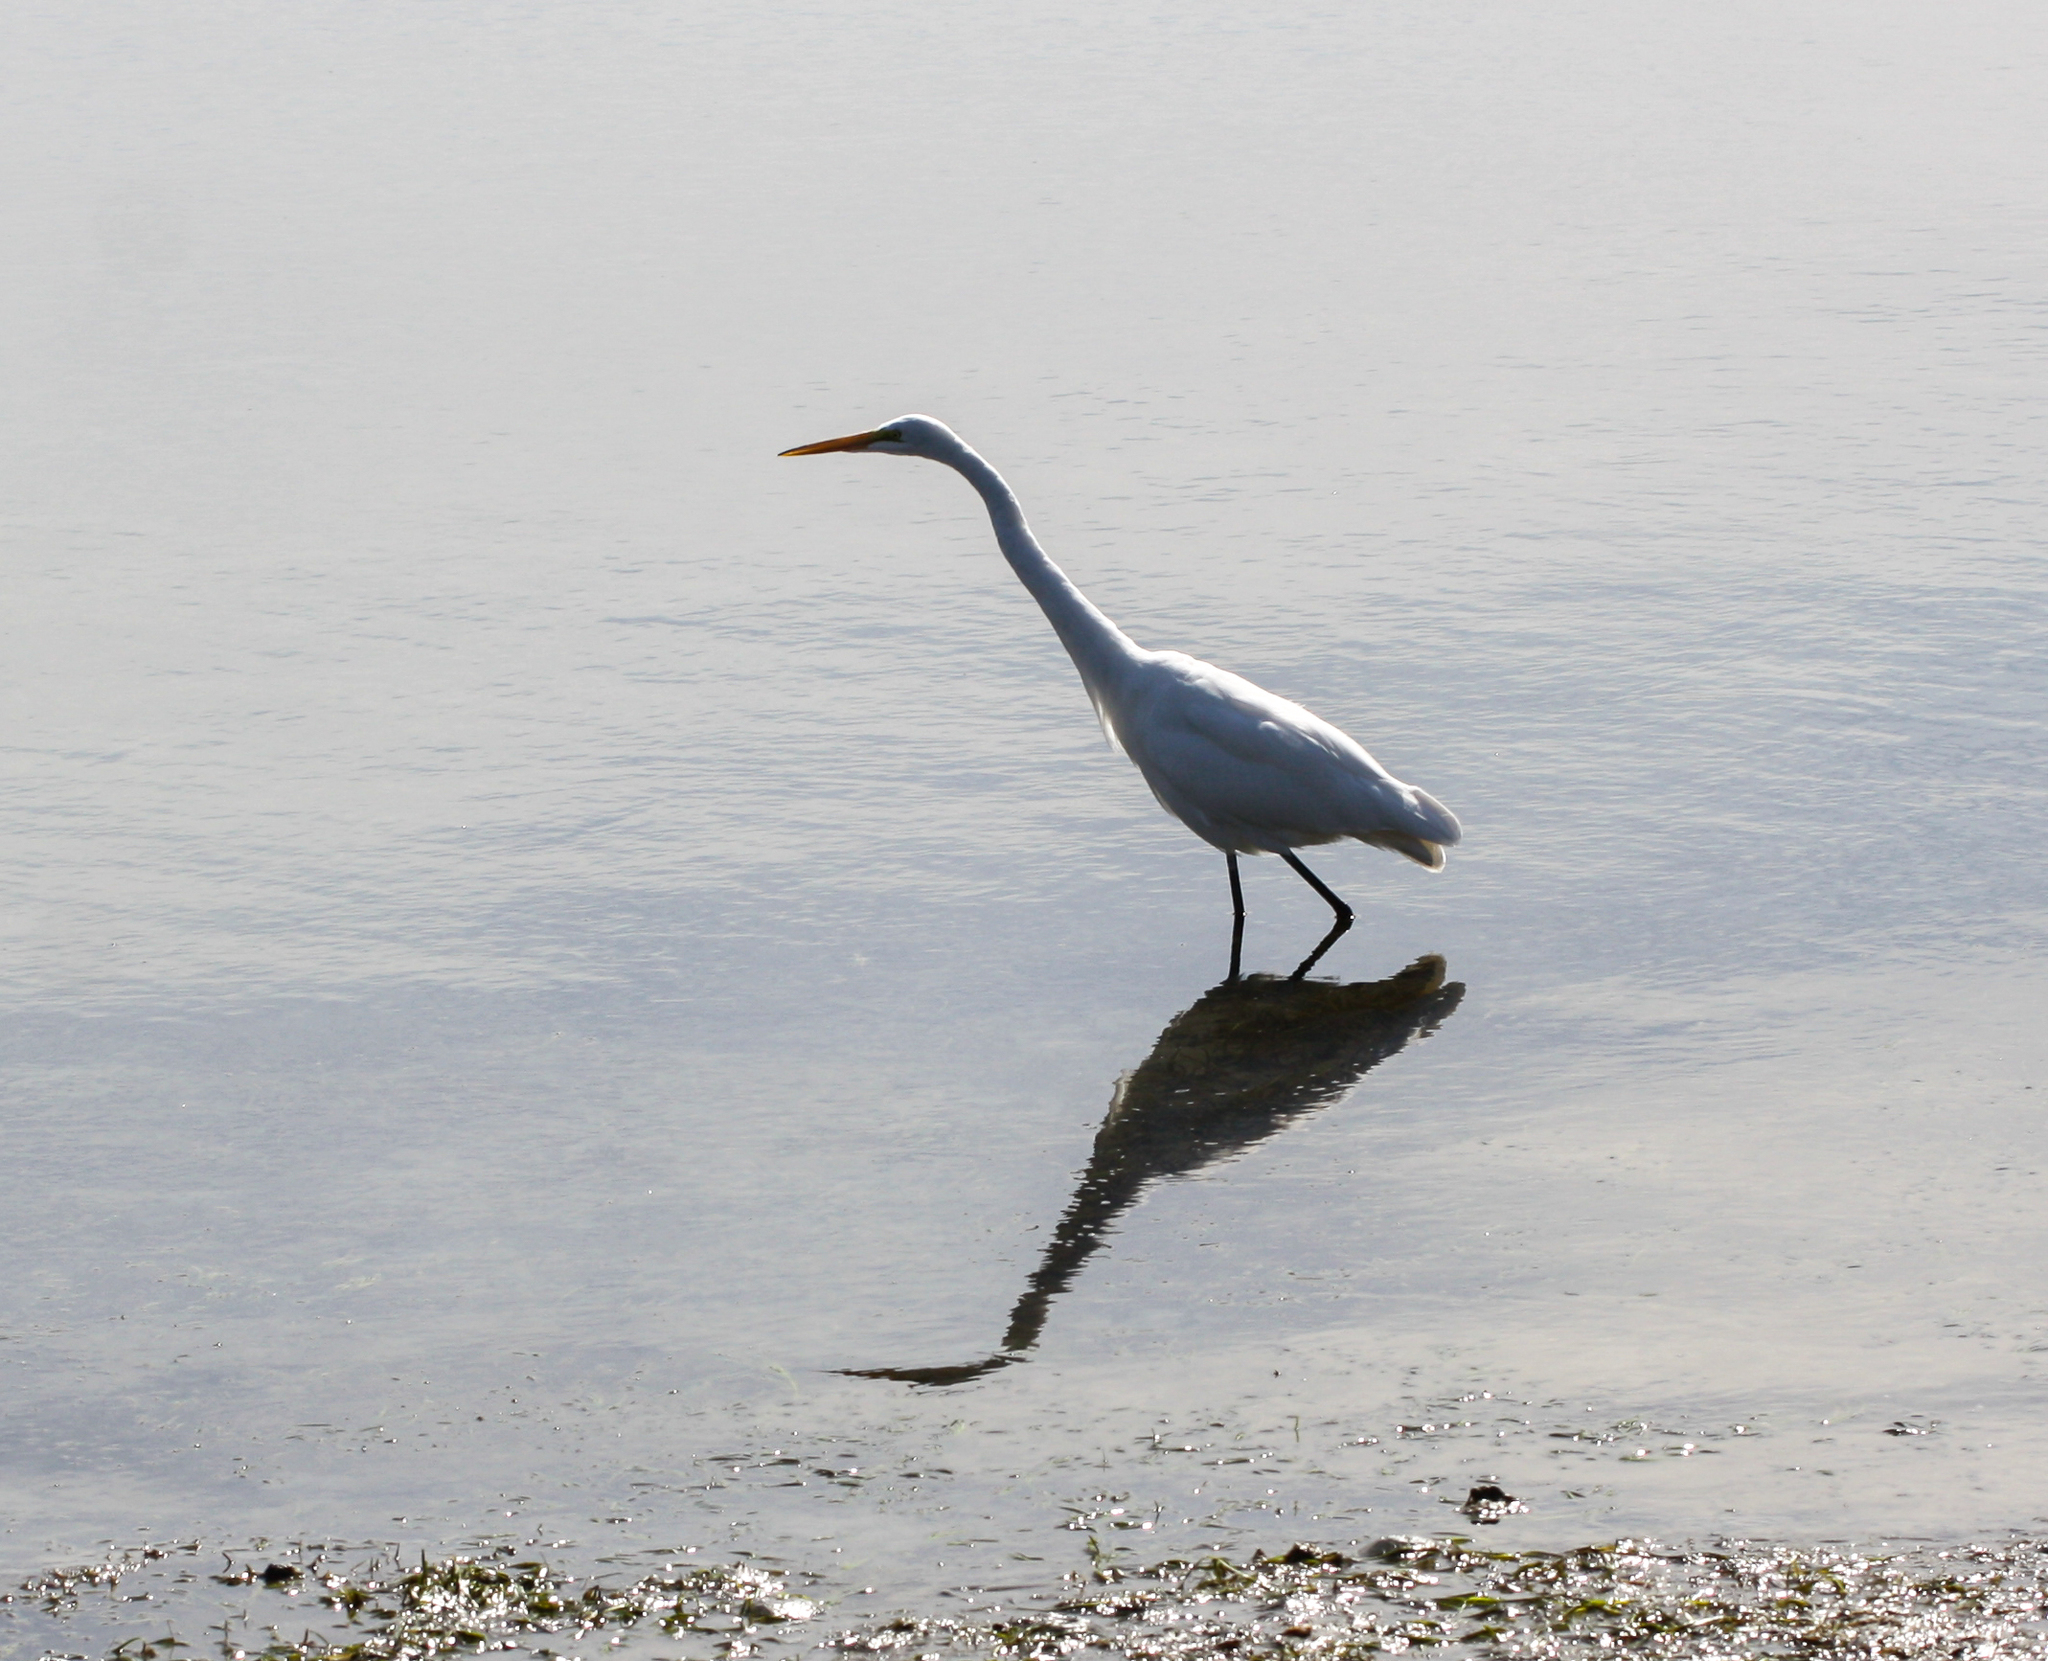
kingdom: Animalia
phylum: Chordata
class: Aves
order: Pelecaniformes
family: Ardeidae
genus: Ardea
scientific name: Ardea alba
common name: Great egret
